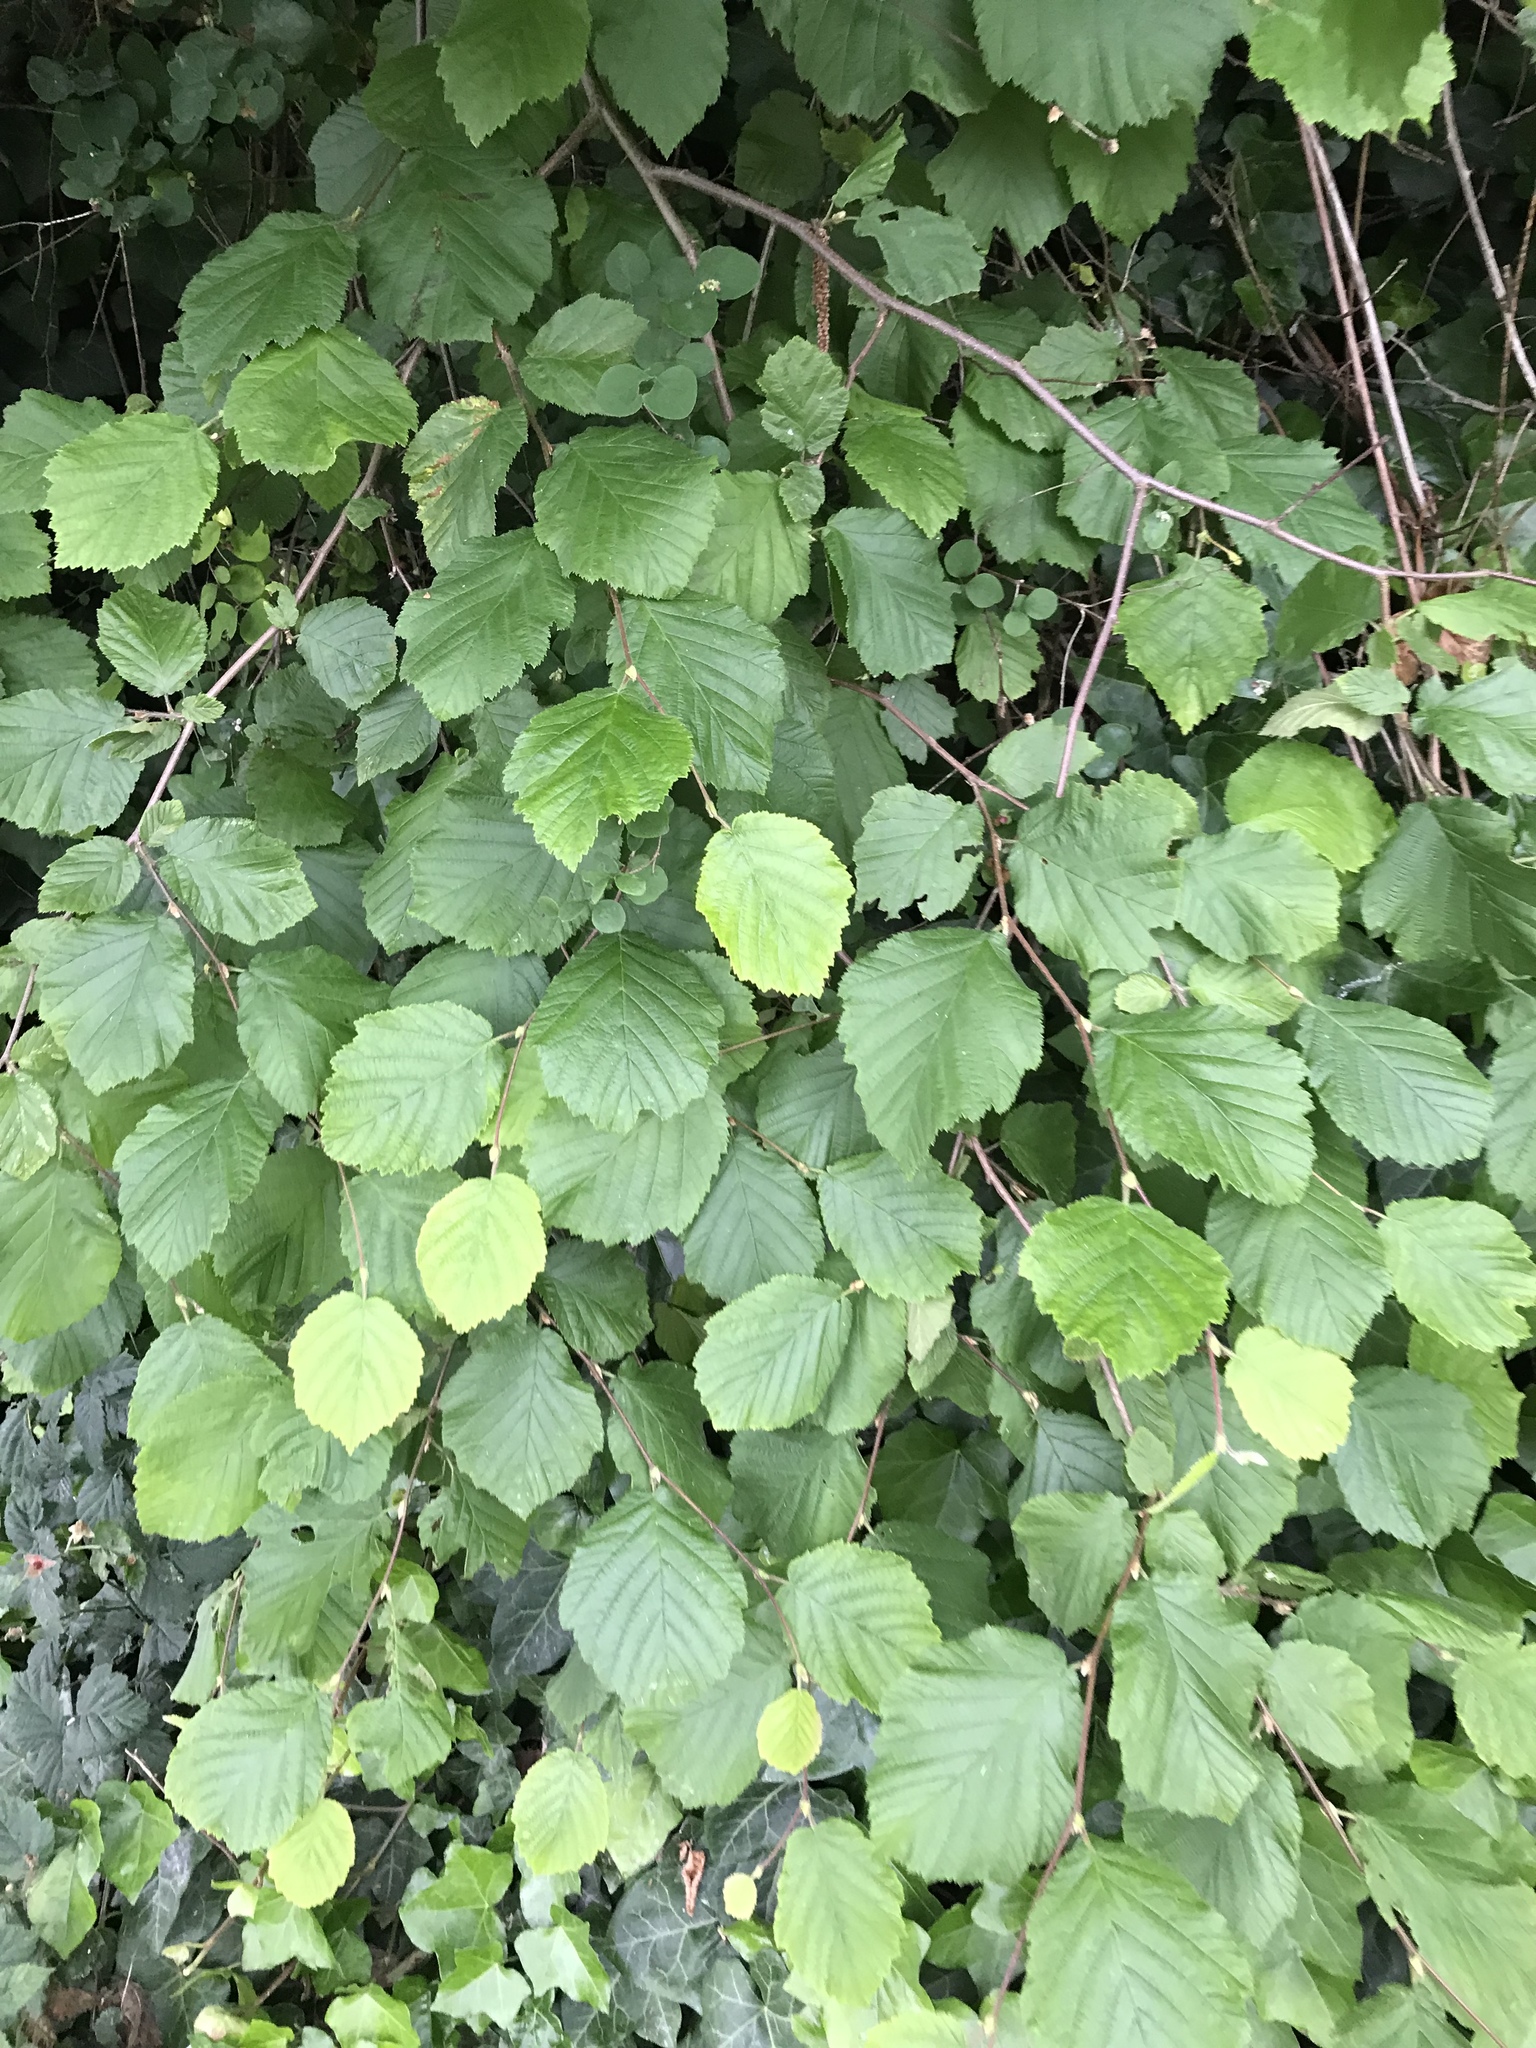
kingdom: Plantae
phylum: Tracheophyta
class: Magnoliopsida
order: Fagales
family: Betulaceae
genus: Corylus
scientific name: Corylus cornuta
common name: Beaked hazel
